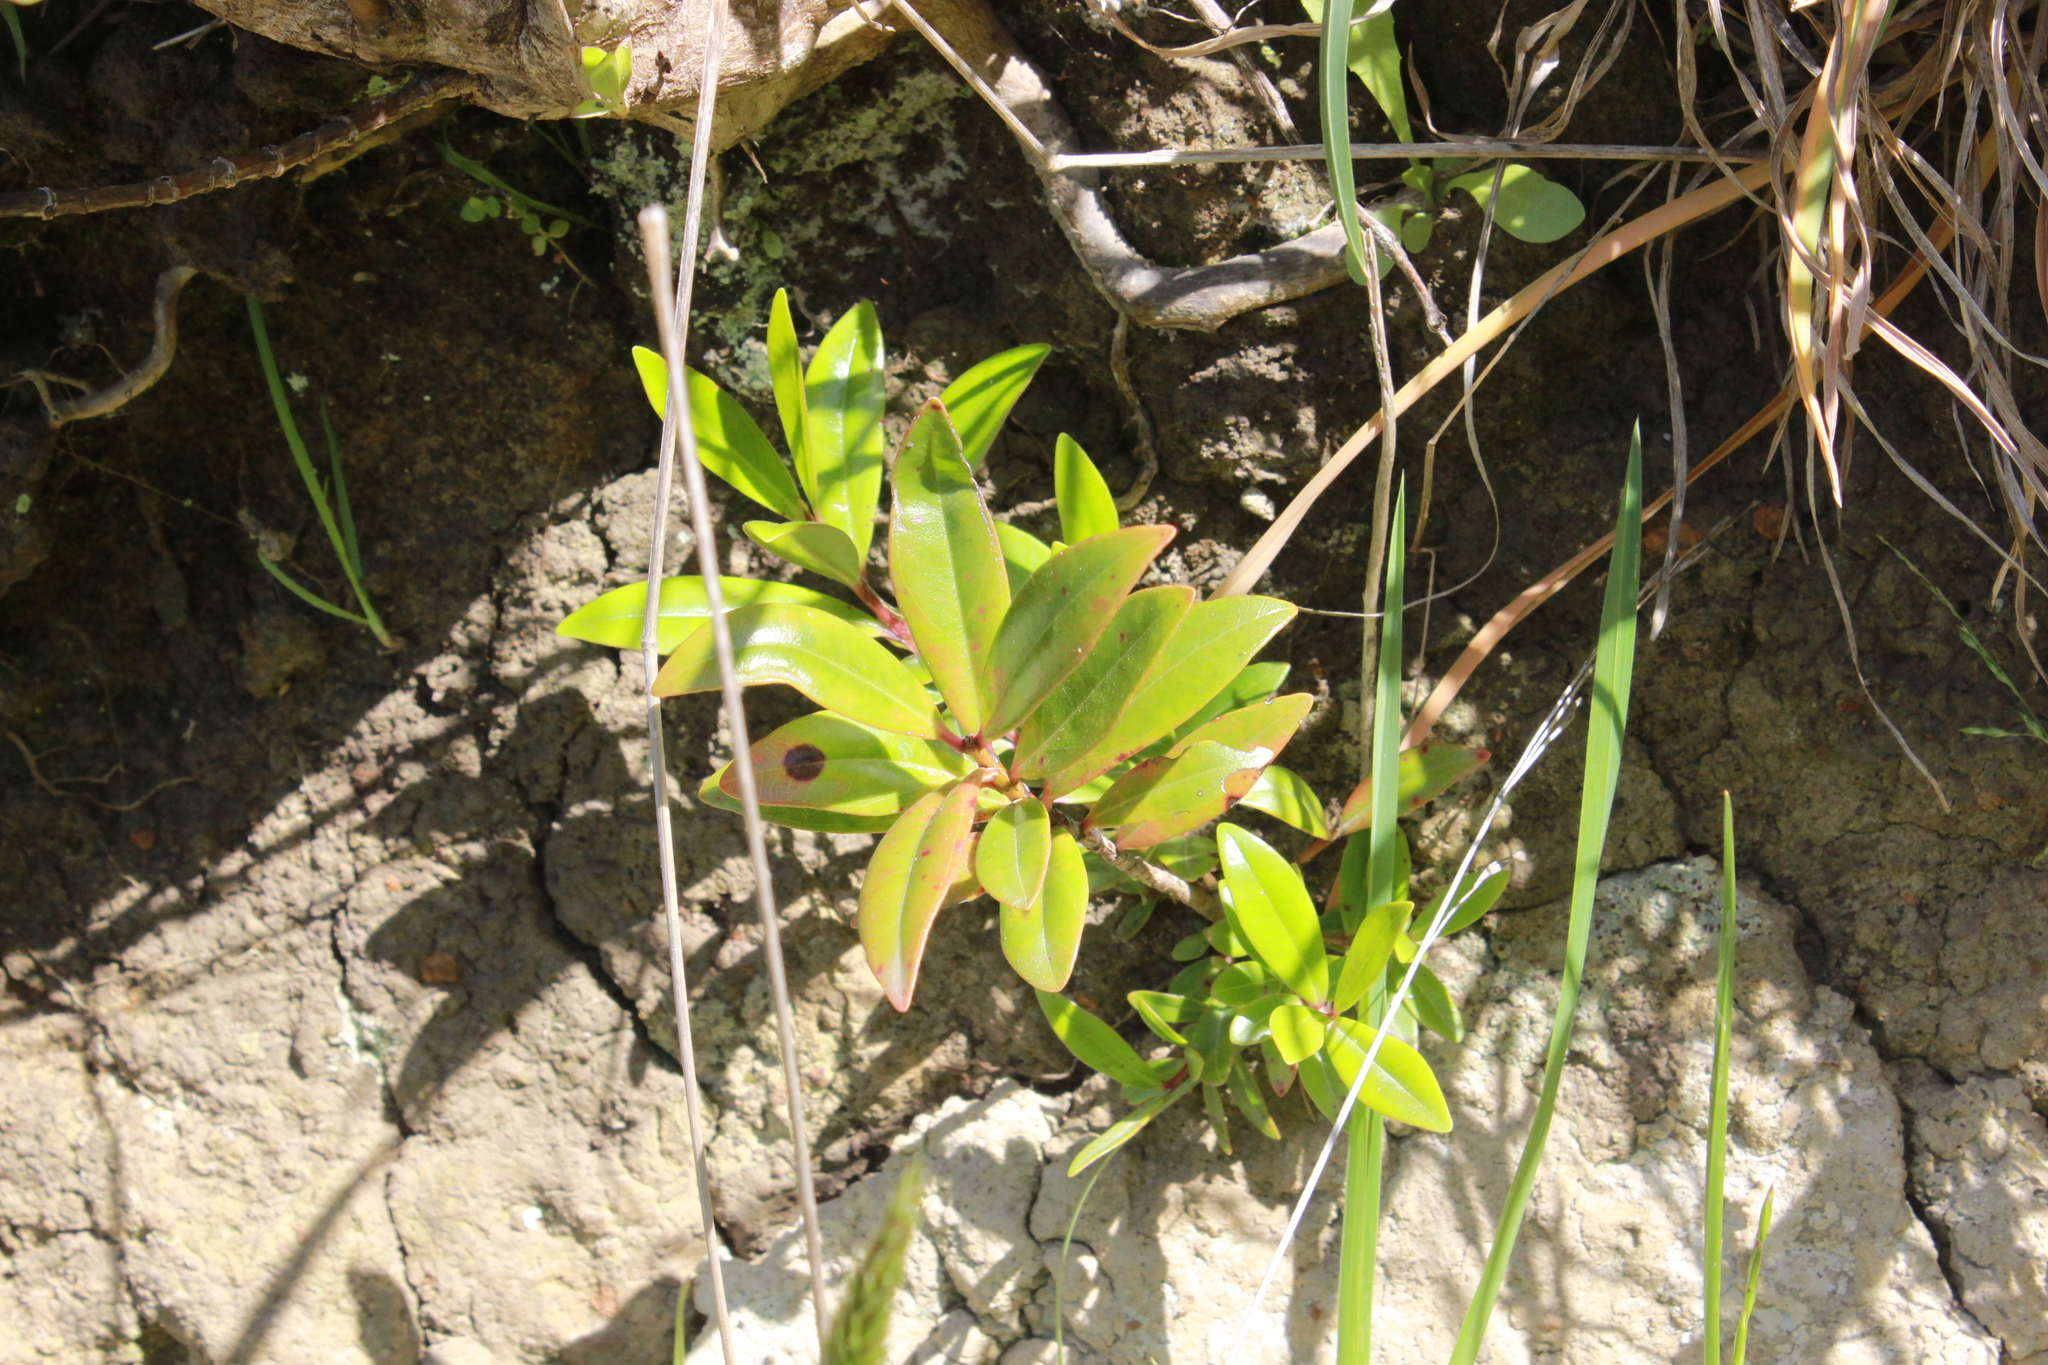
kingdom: Plantae
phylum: Tracheophyta
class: Magnoliopsida
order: Myrtales
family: Myrtaceae
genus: Metrosideros
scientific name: Metrosideros excelsa
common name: New zealand christmastree
